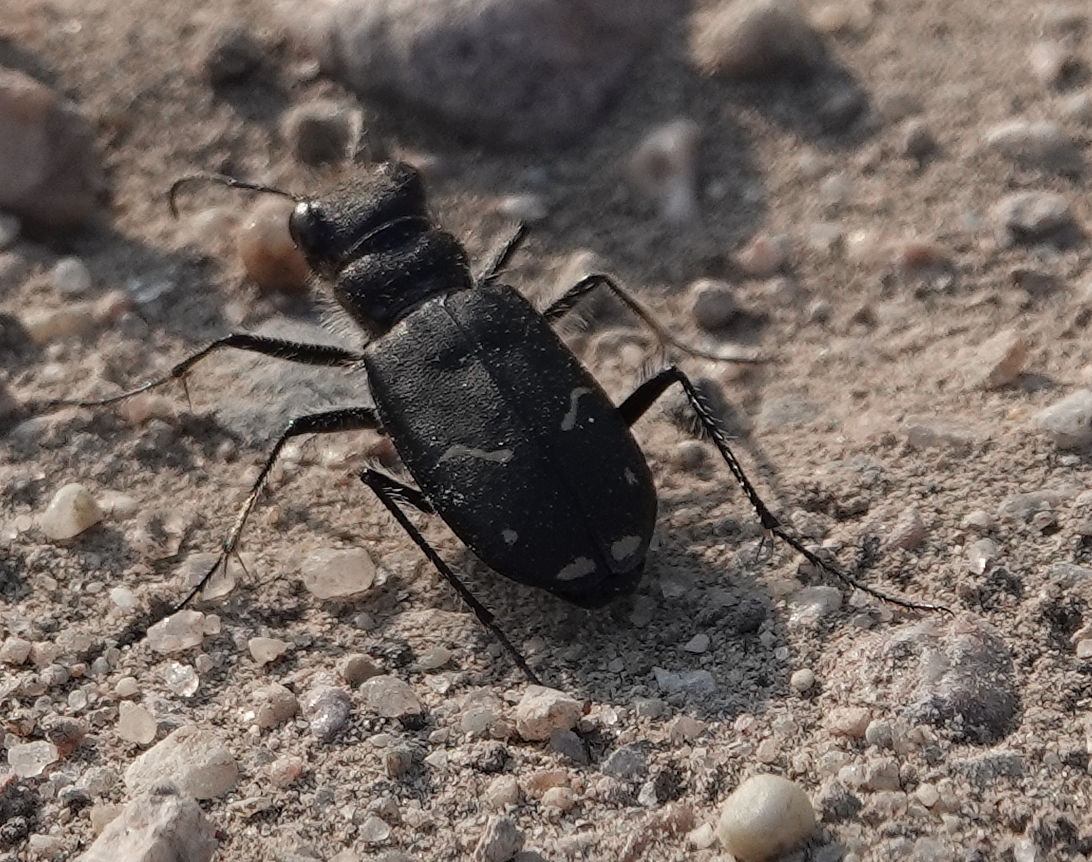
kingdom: Animalia
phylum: Arthropoda
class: Insecta
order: Coleoptera
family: Carabidae
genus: Cicindela
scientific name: Cicindela purpurea
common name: Cow path tiger beetle
